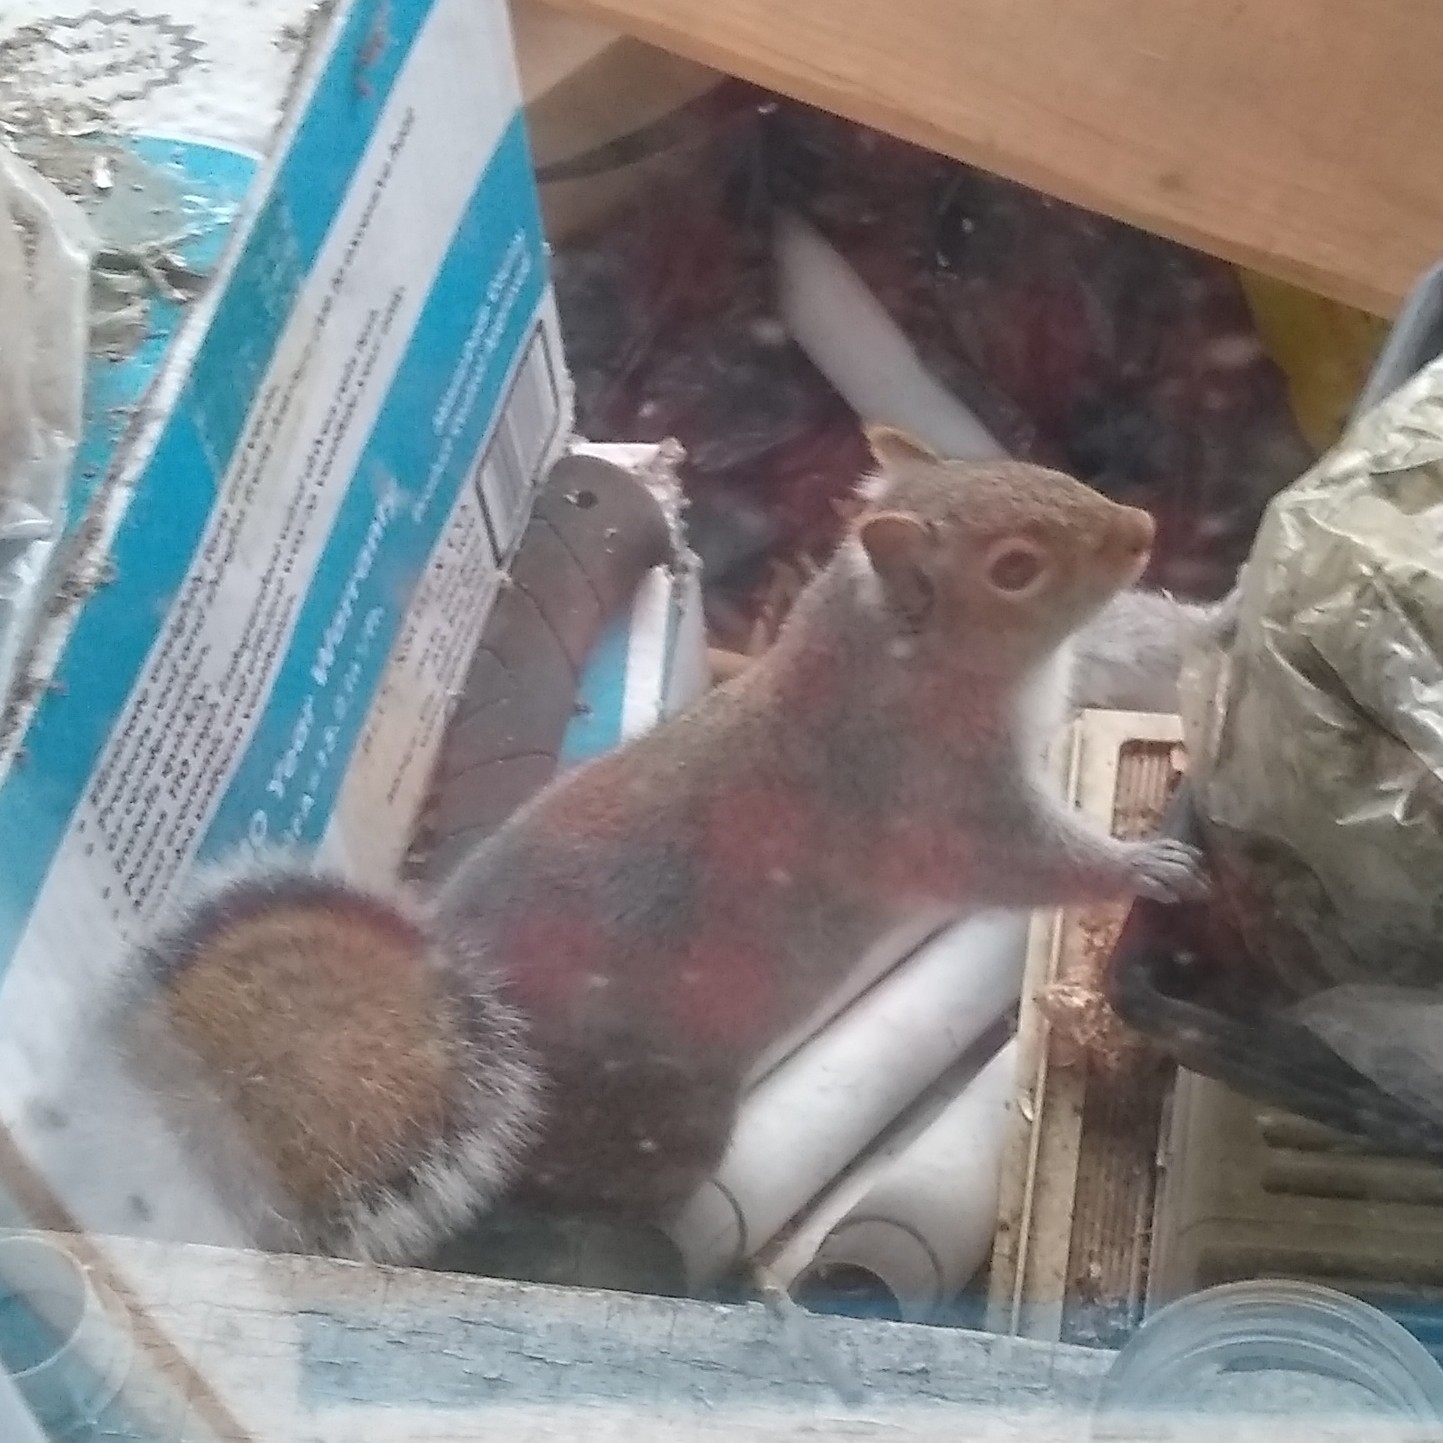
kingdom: Animalia
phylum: Chordata
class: Mammalia
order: Rodentia
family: Sciuridae
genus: Sciurus
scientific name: Sciurus carolinensis
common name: Eastern gray squirrel
